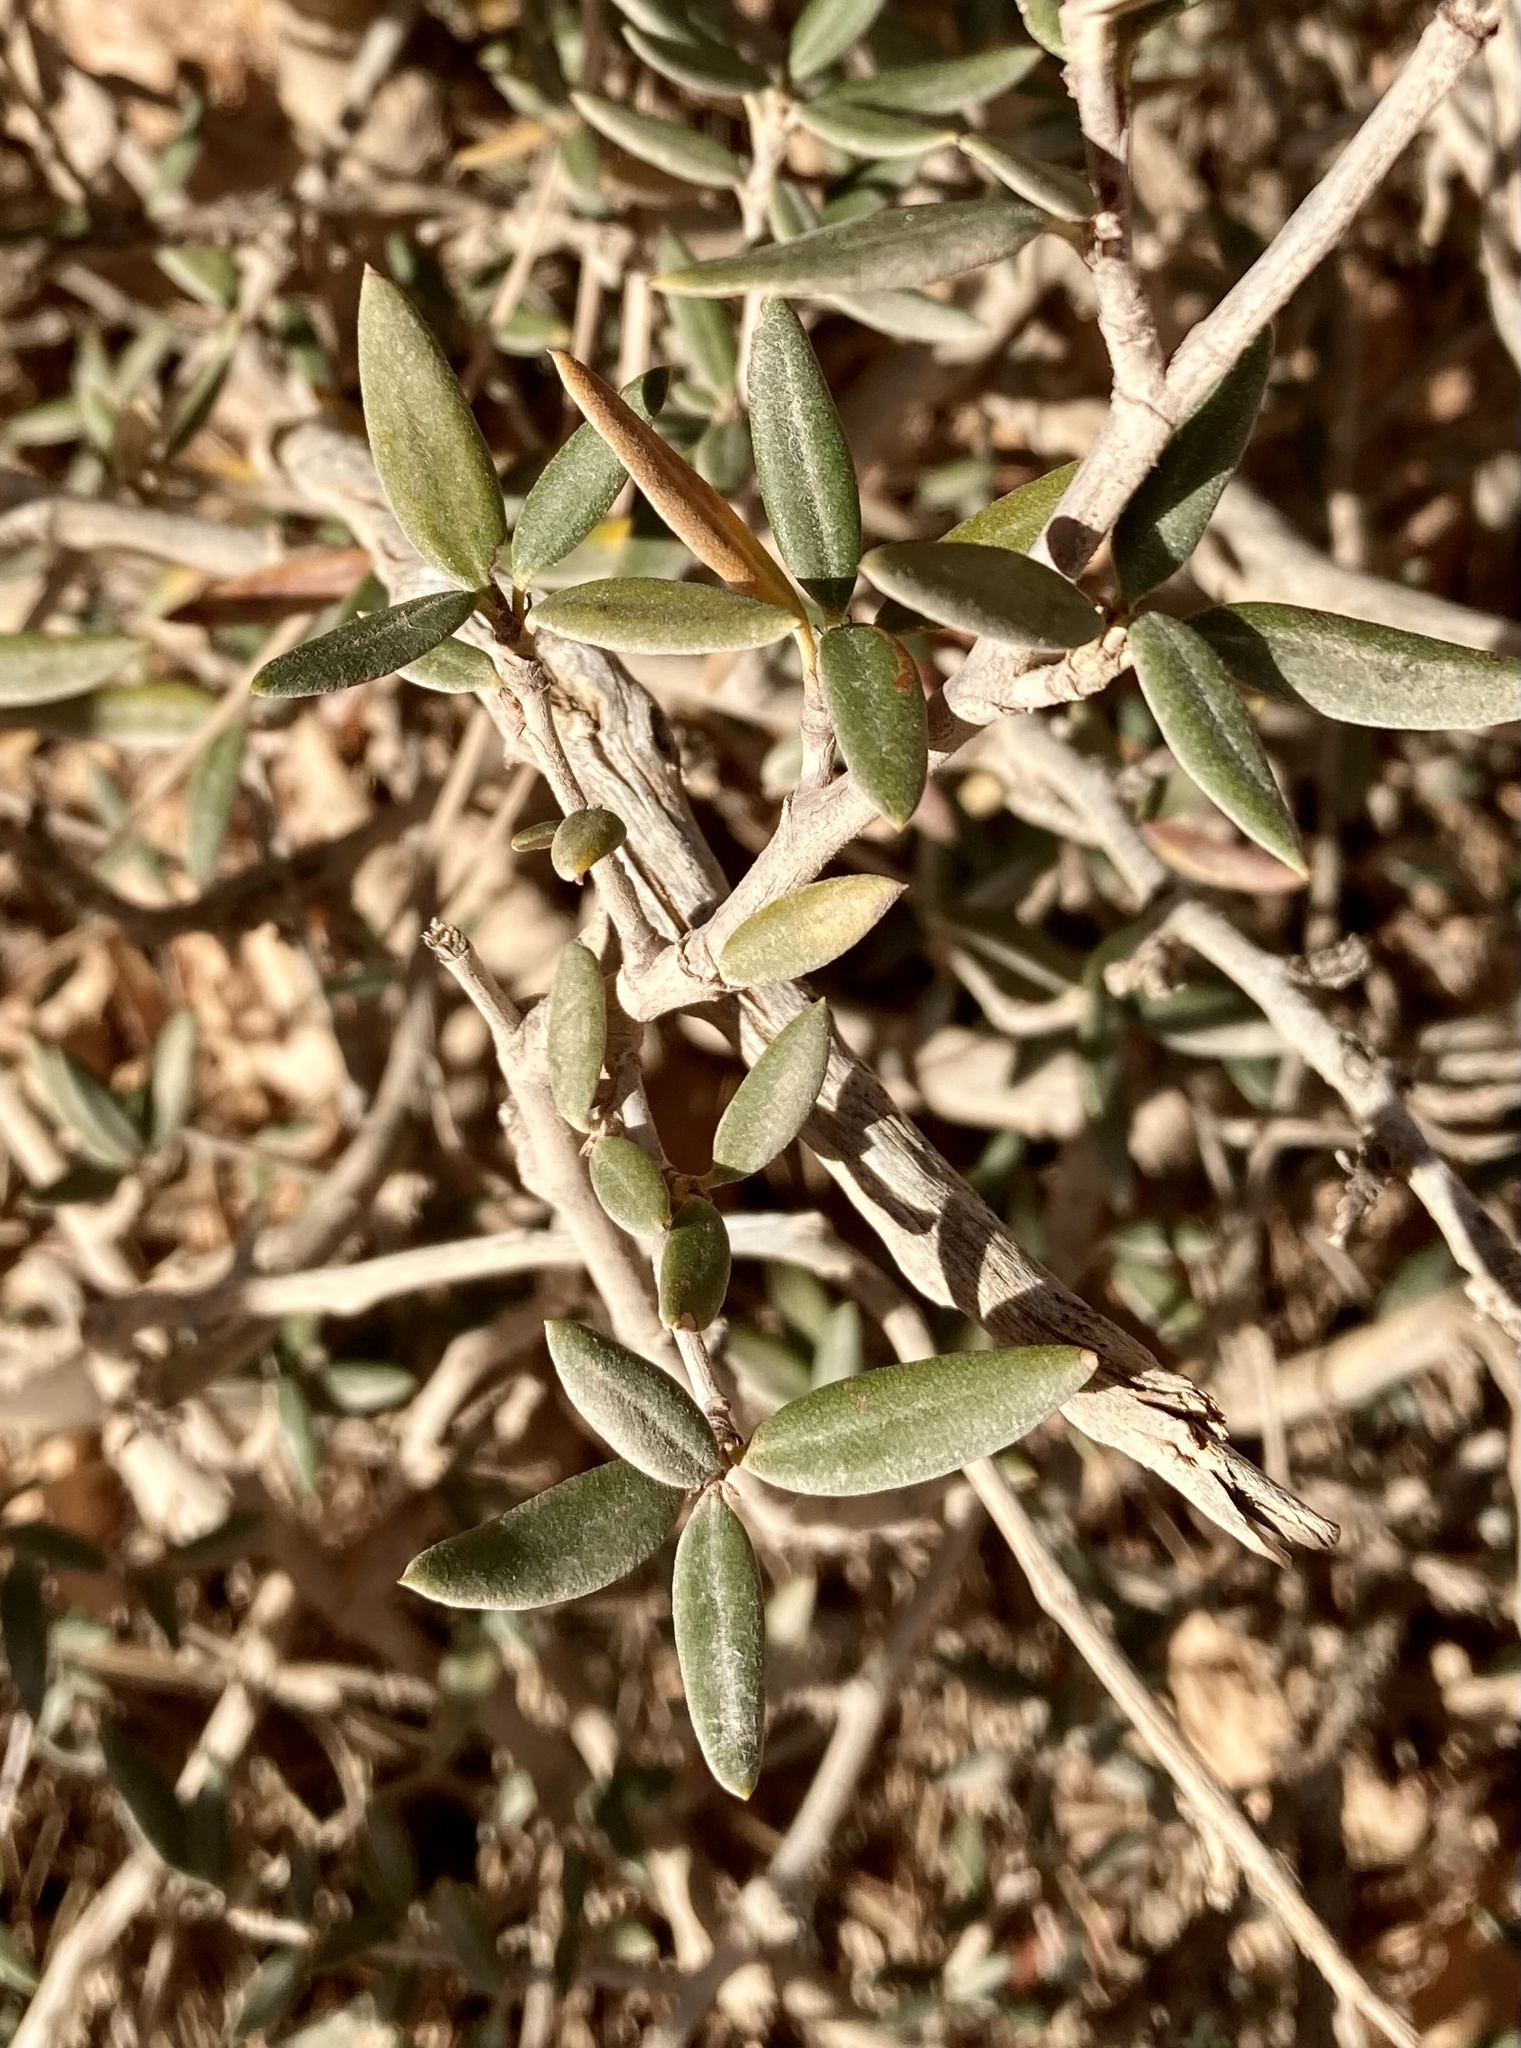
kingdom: Plantae
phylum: Tracheophyta
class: Magnoliopsida
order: Rosales
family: Rosaceae
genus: Cercocarpus
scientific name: Cercocarpus ledifolius
